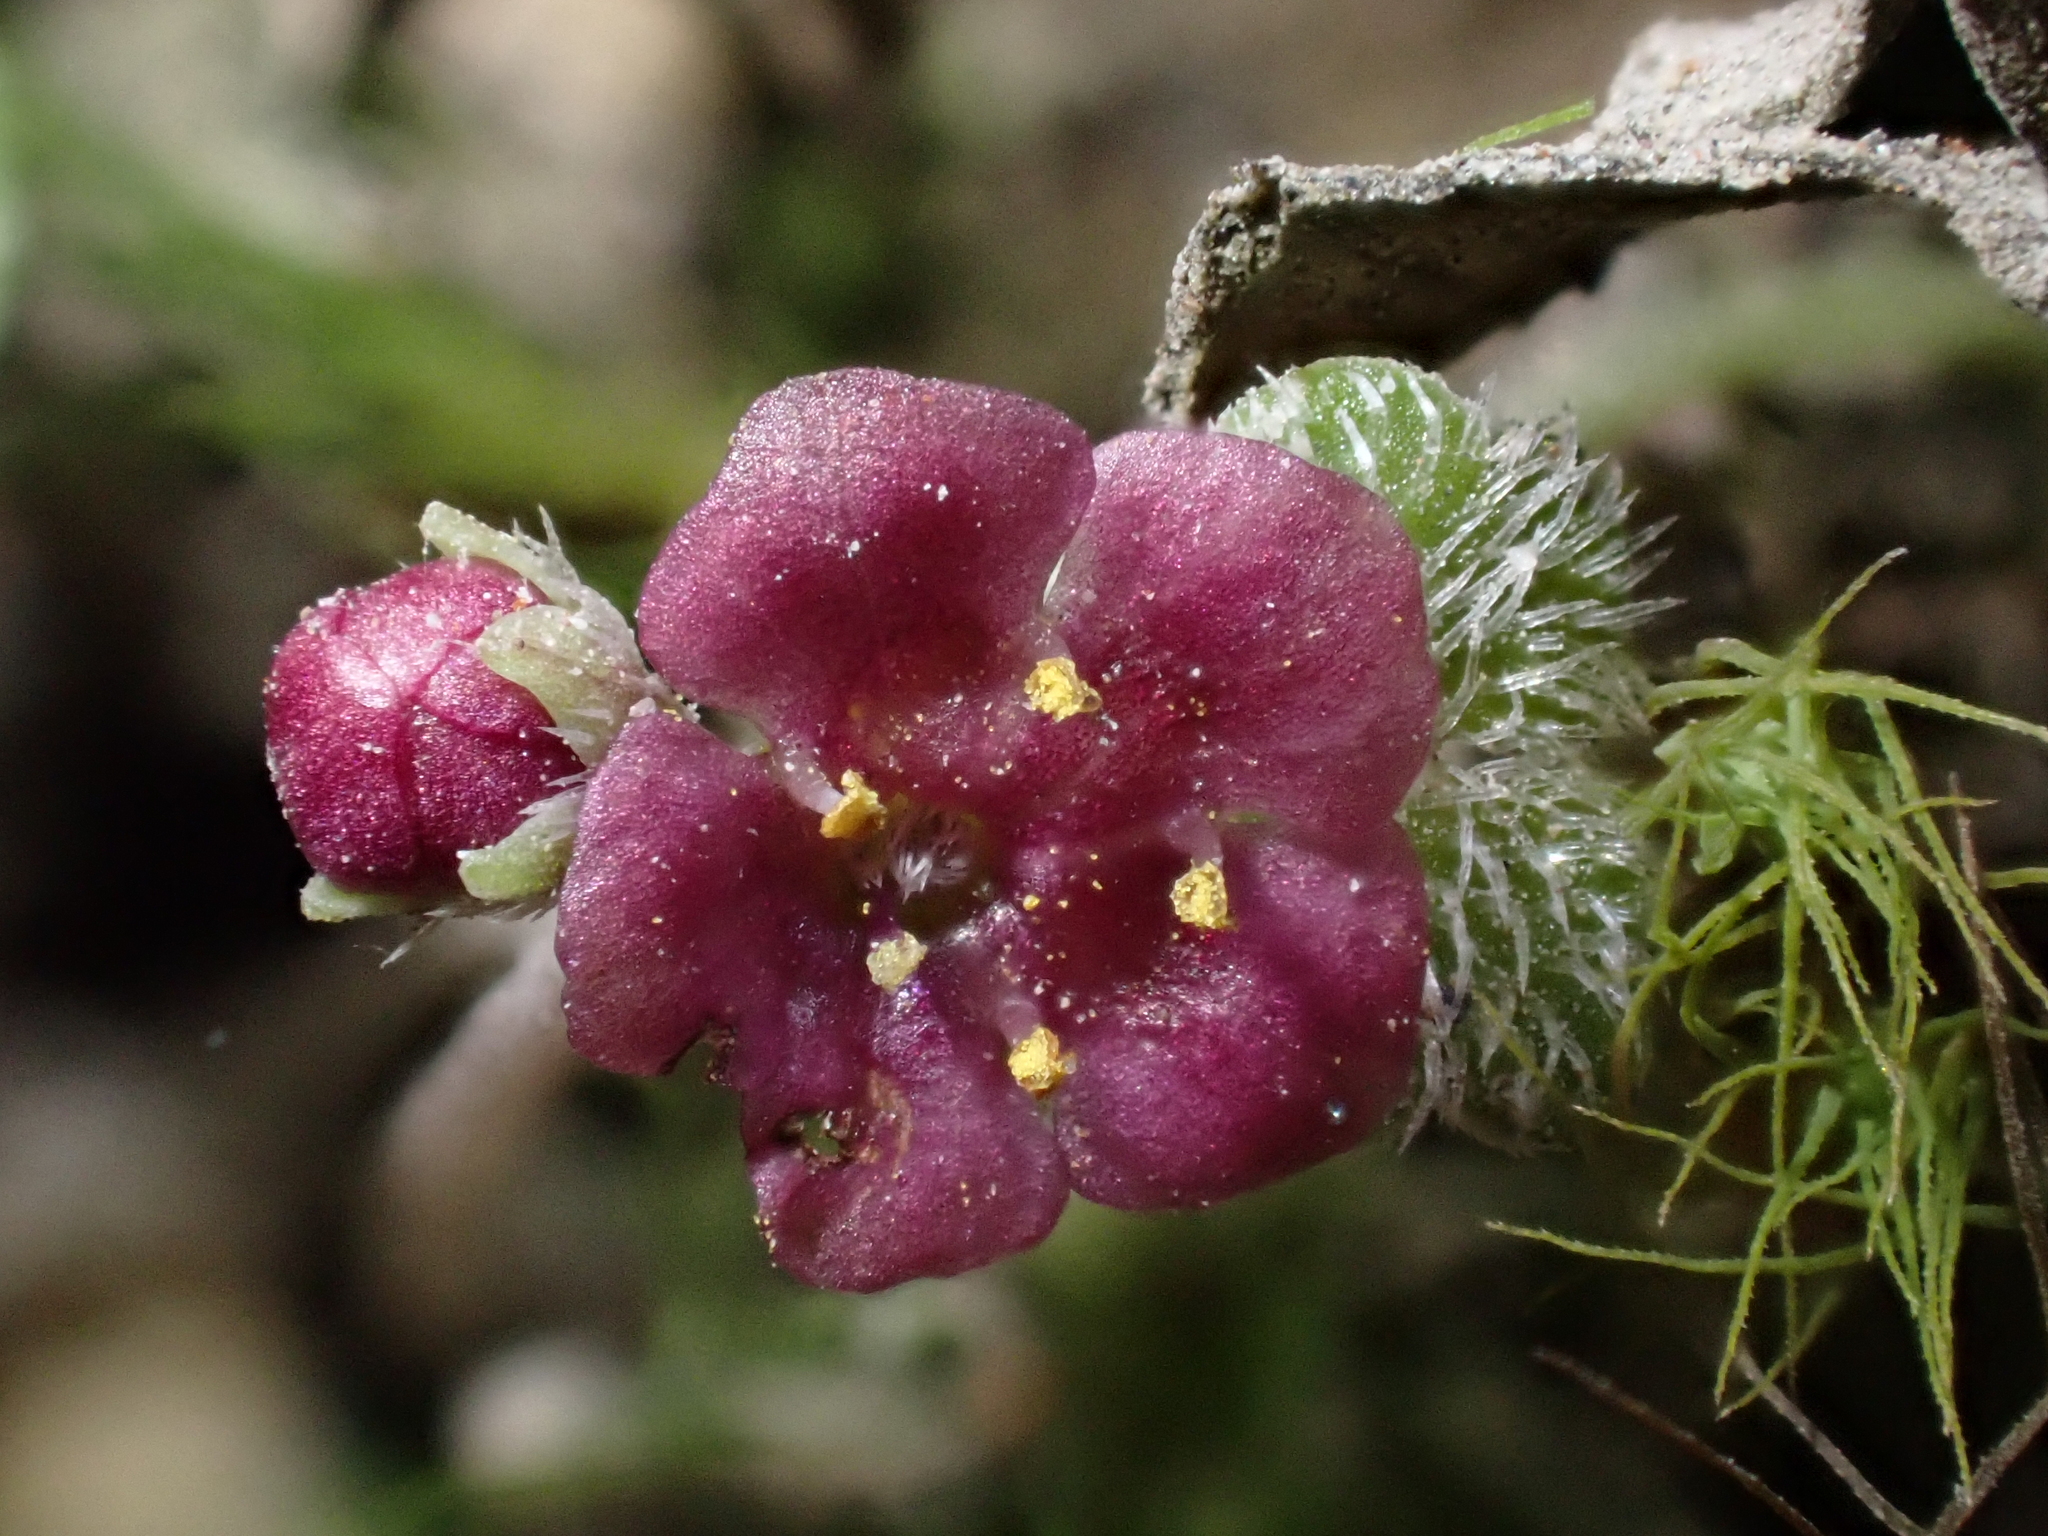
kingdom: Plantae
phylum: Tracheophyta
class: Magnoliopsida
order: Lamiales
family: Plantaginaceae
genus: Sibthorpia
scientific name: Sibthorpia repens
